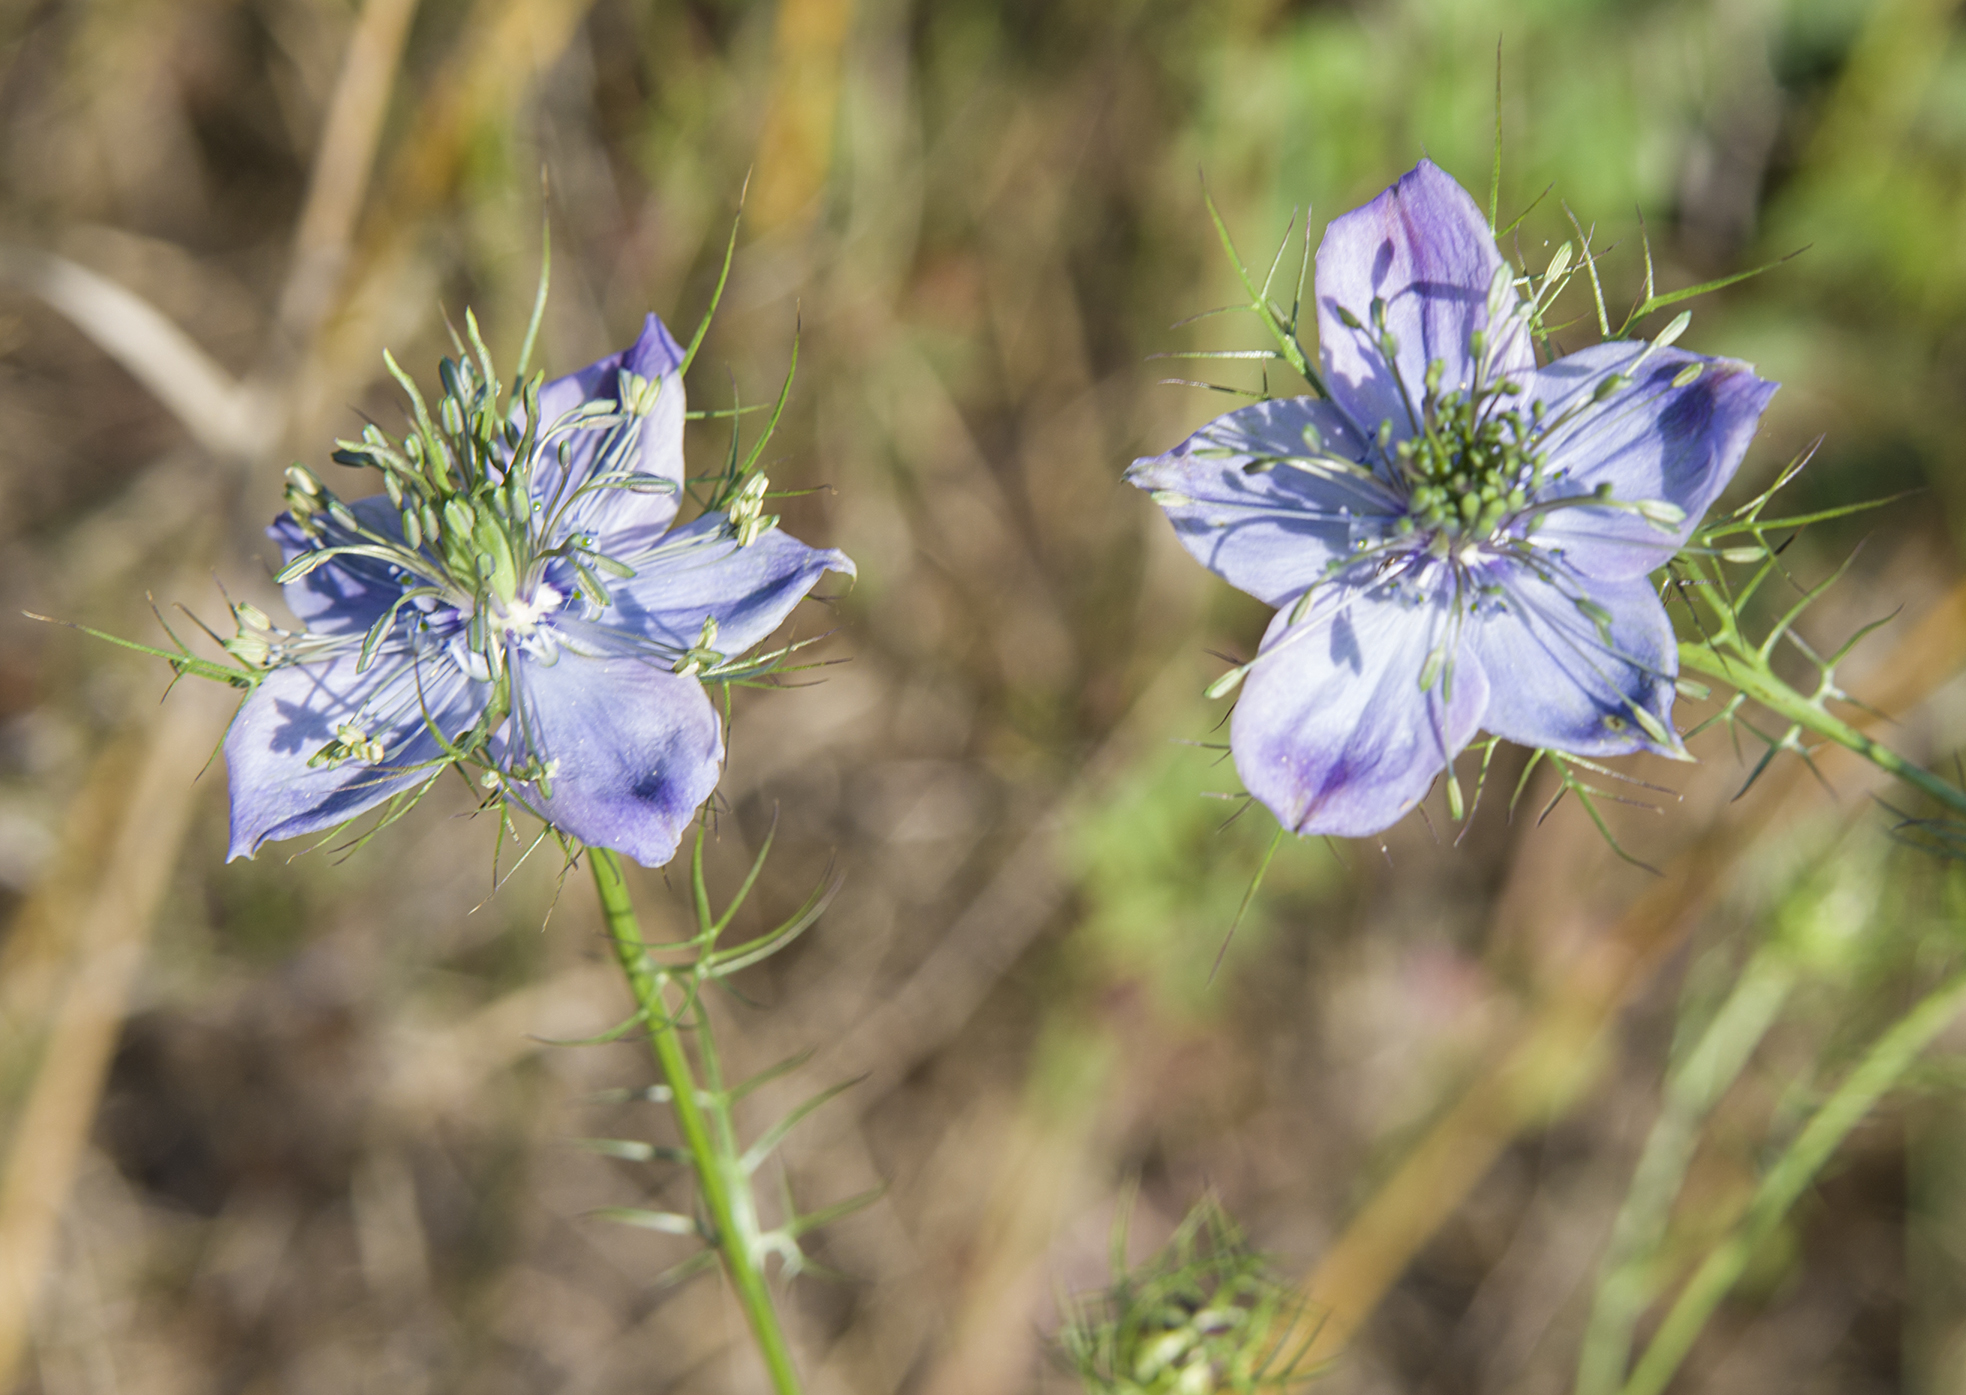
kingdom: Plantae
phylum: Tracheophyta
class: Magnoliopsida
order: Ranunculales
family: Ranunculaceae
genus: Nigella
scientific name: Nigella damascena
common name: Love-in-a-mist
